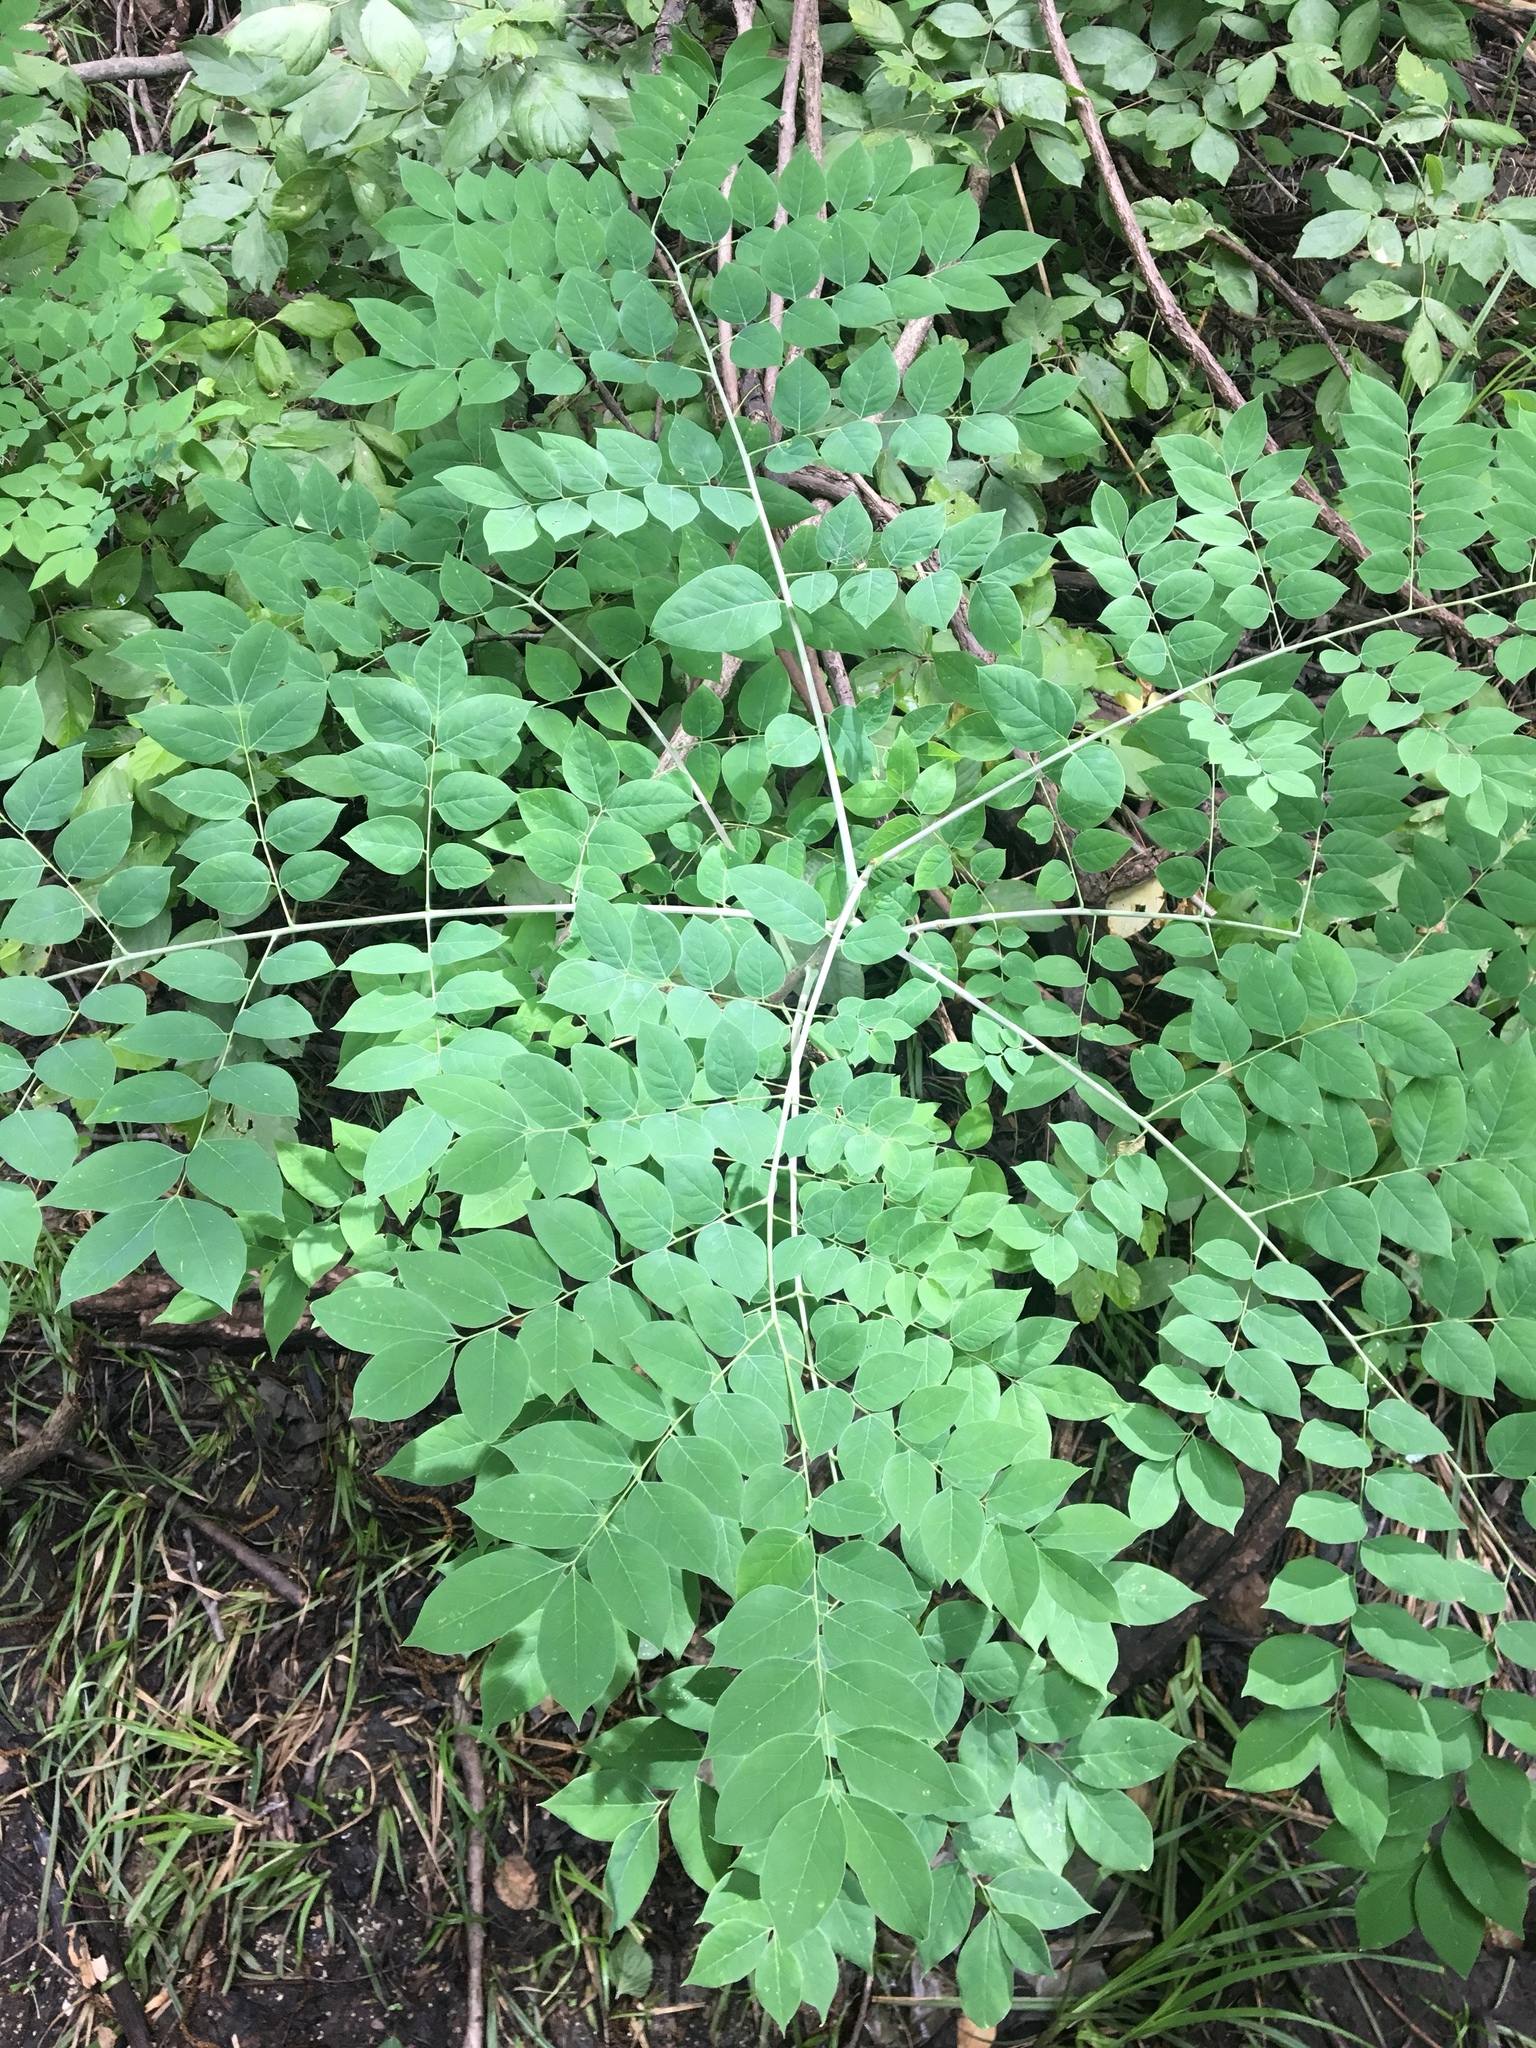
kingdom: Plantae
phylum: Tracheophyta
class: Magnoliopsida
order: Fabales
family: Fabaceae
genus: Gymnocladus
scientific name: Gymnocladus dioicus
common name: Kentucky coffee-tree
